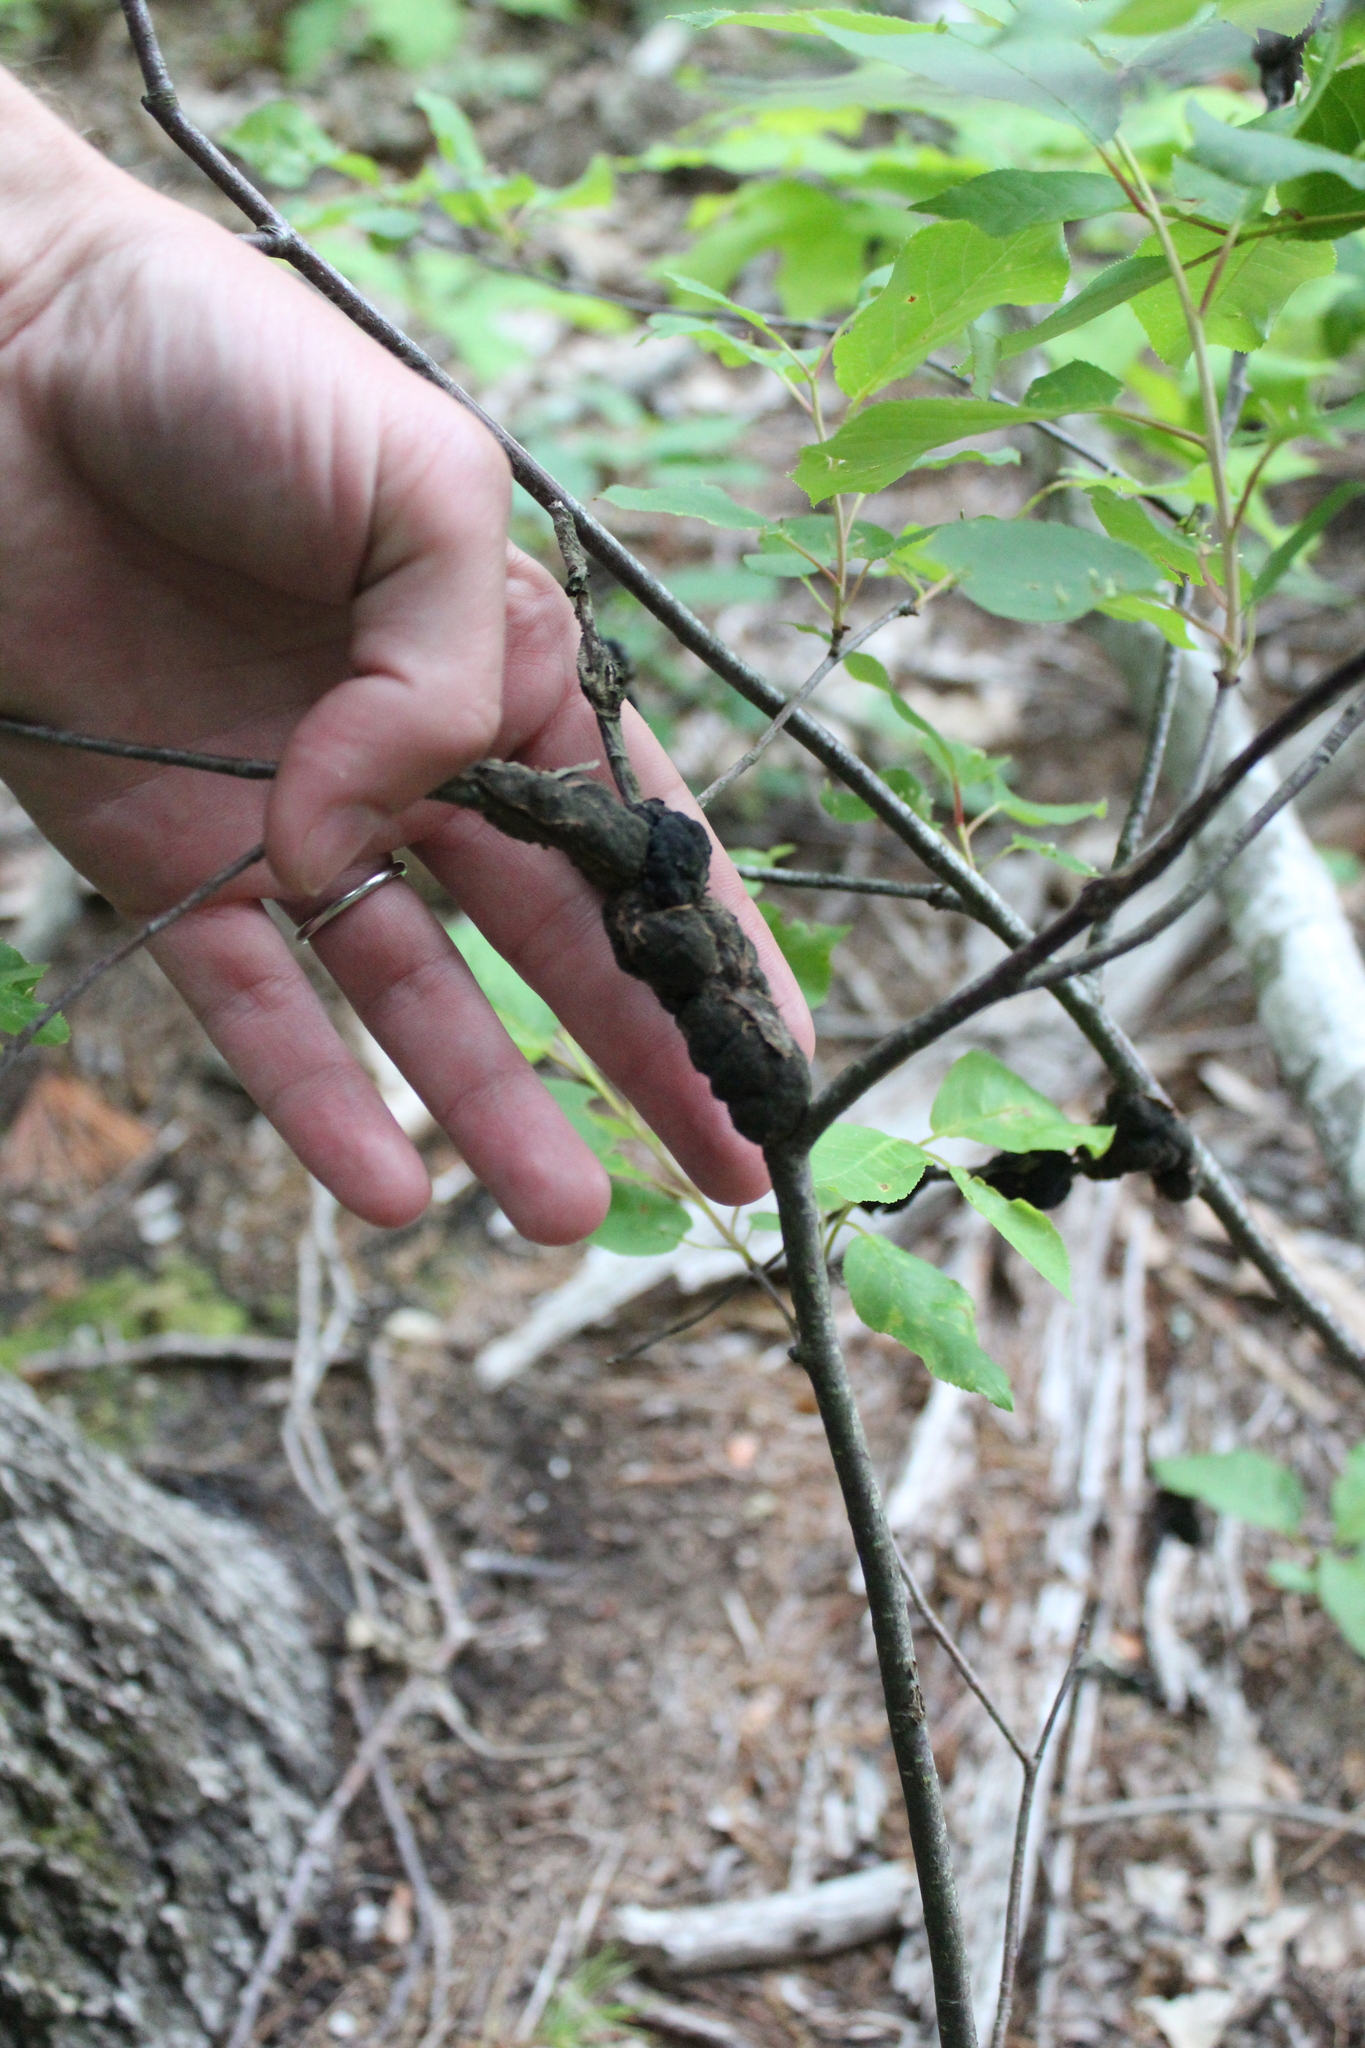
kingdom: Fungi
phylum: Ascomycota
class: Dothideomycetes
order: Venturiales
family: Venturiaceae
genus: Apiosporina
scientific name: Apiosporina morbosa
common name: Black knot
